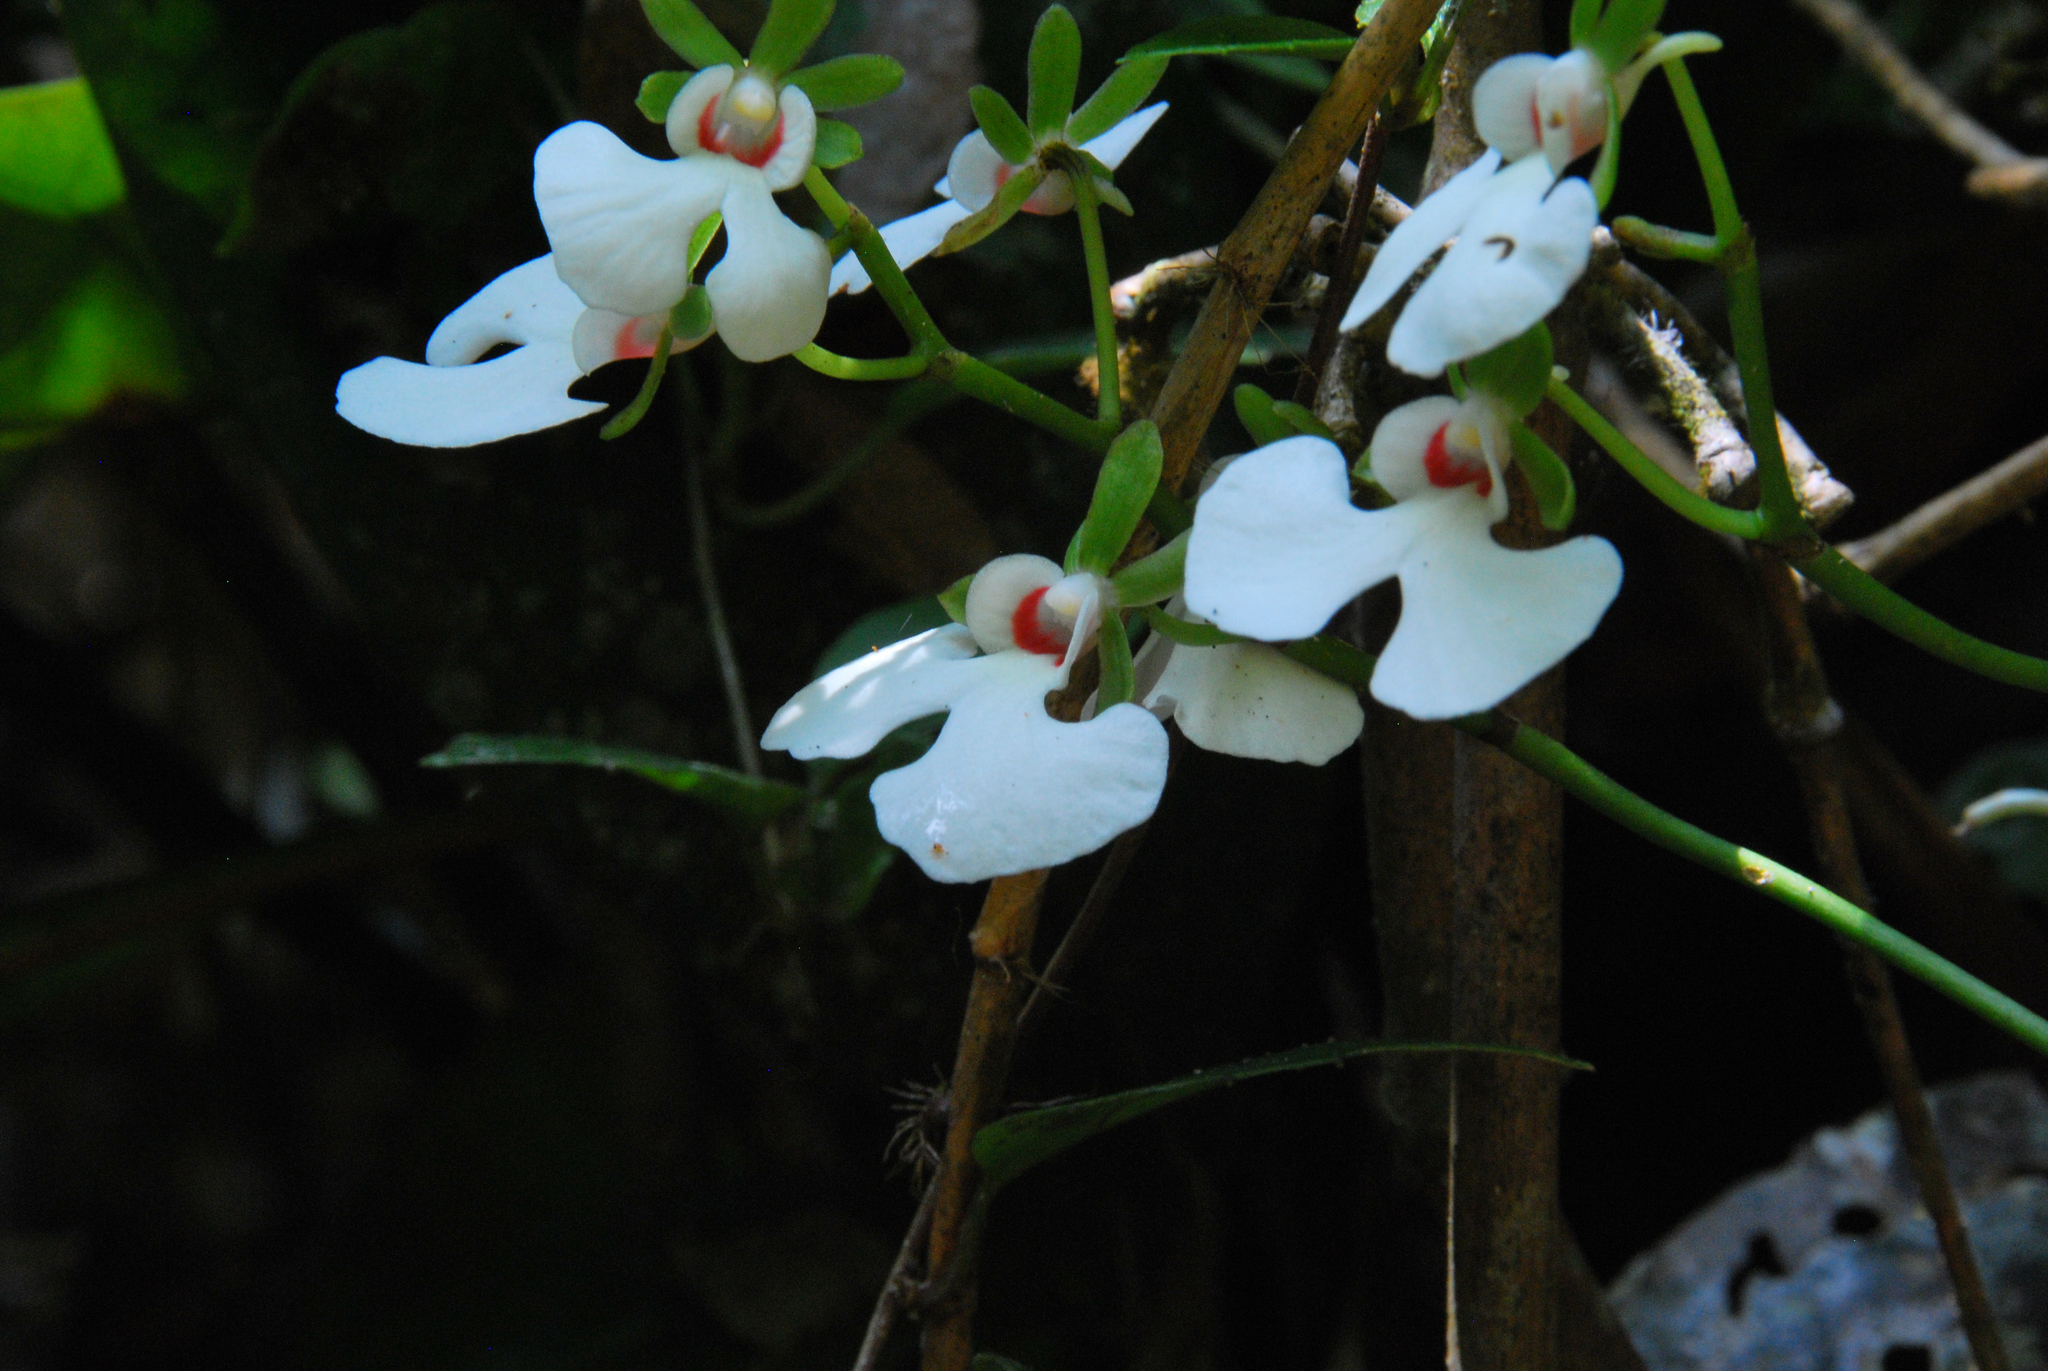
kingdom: Plantae
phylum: Tracheophyta
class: Liliopsida
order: Asparagales
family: Orchidaceae
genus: Oeonia
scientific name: Oeonia rosea
